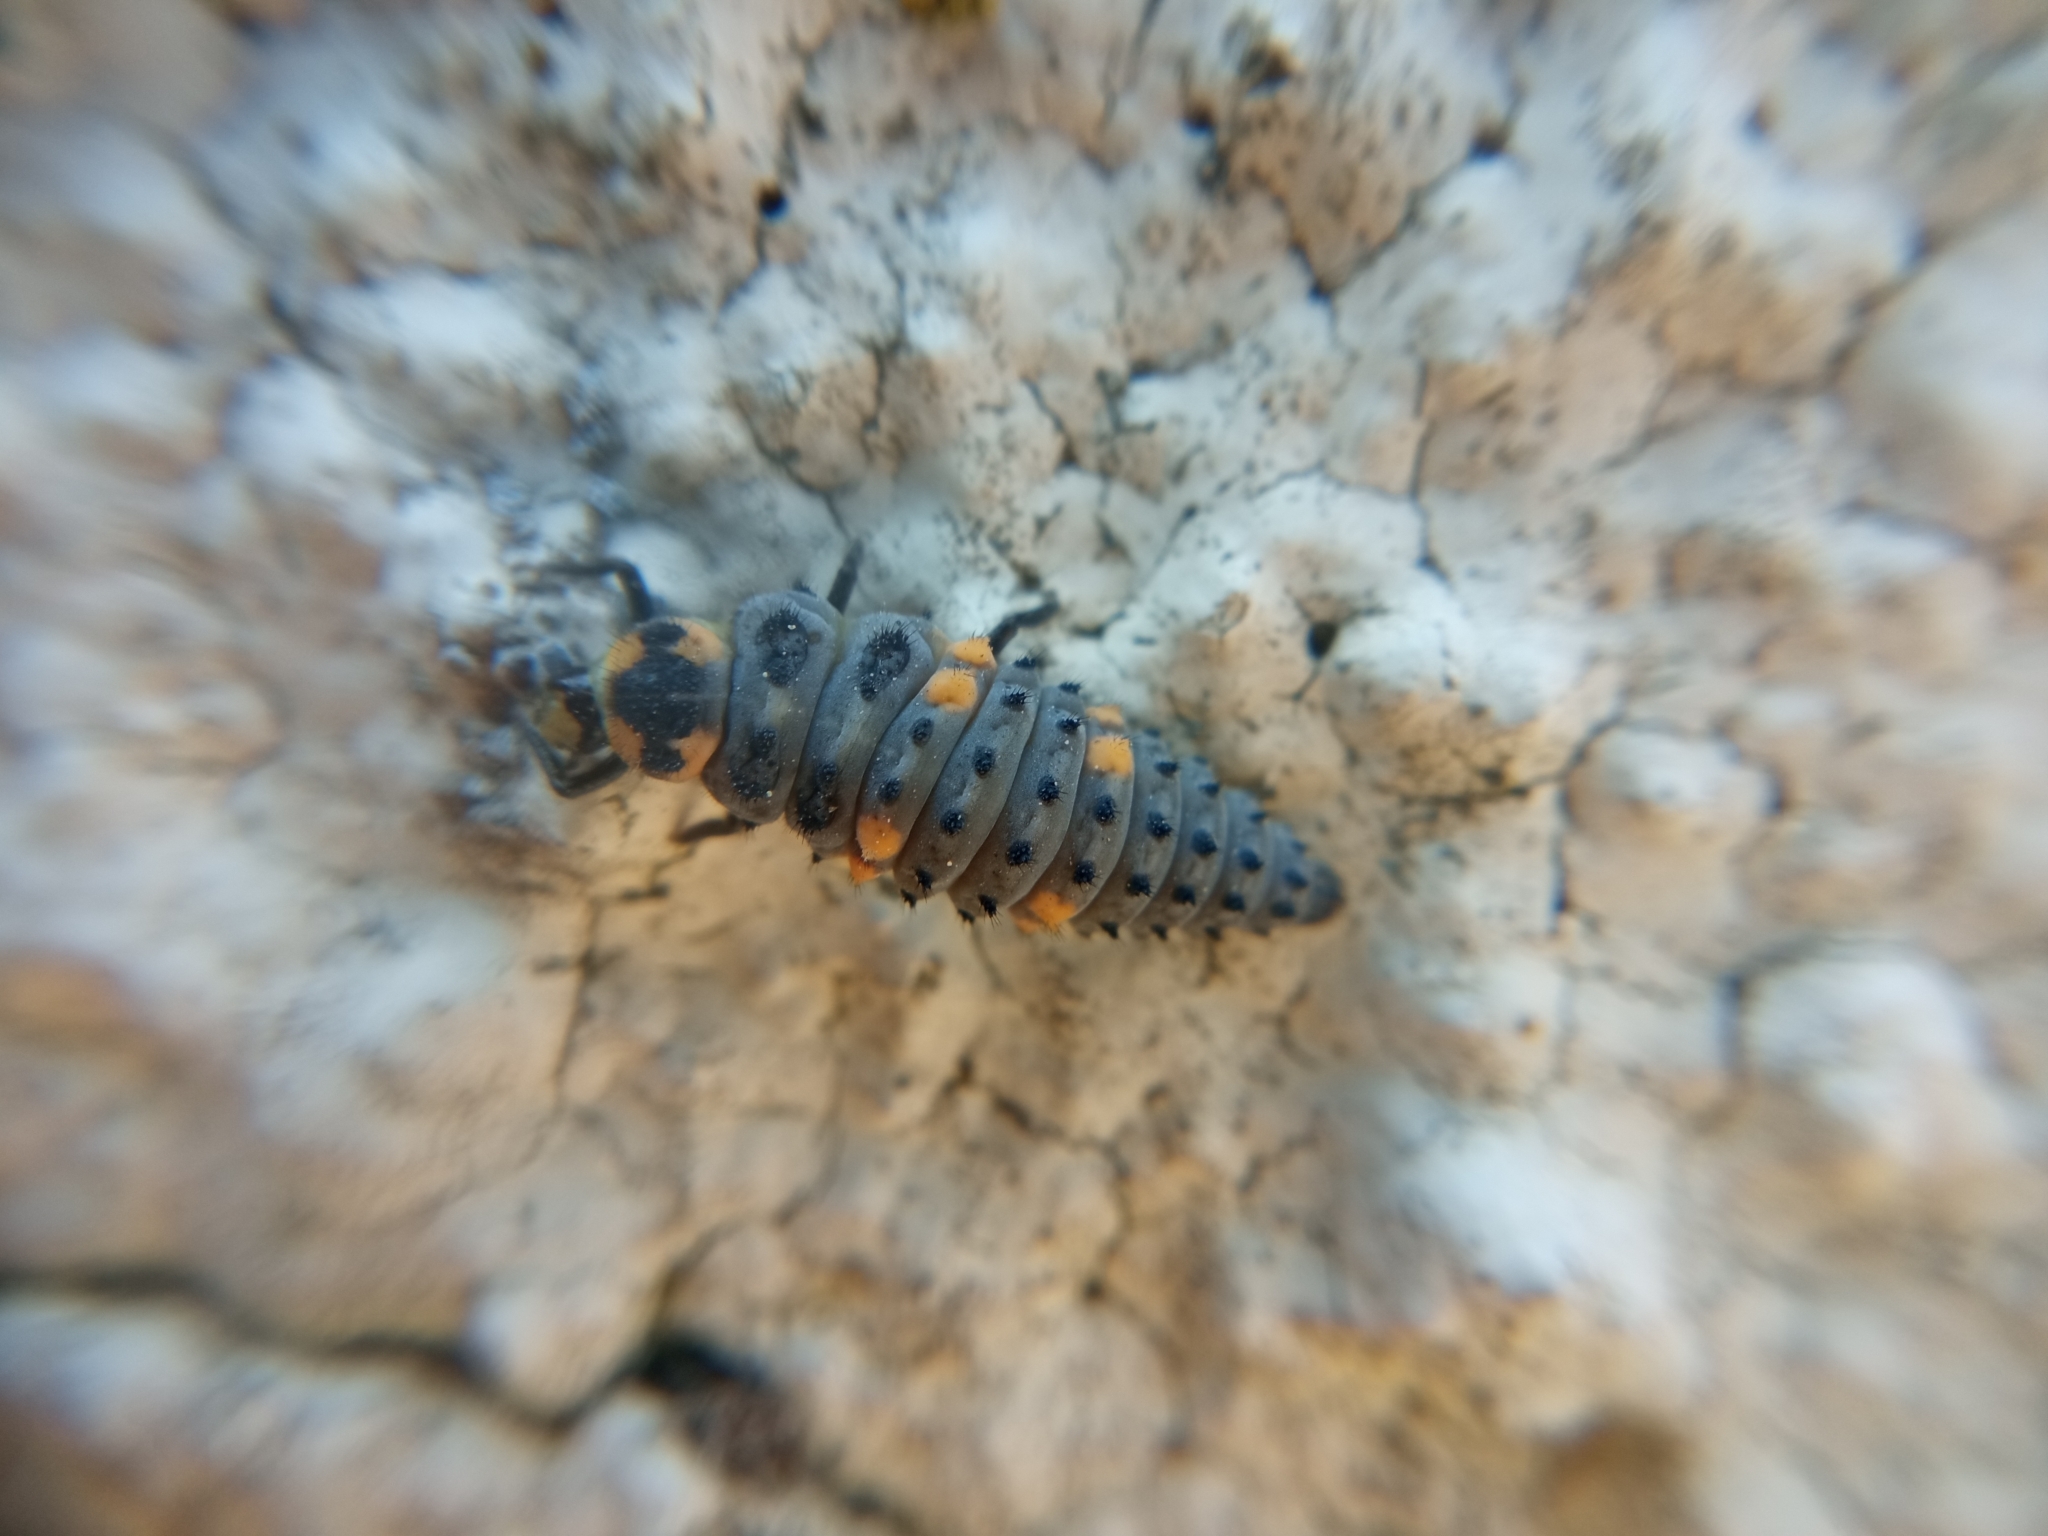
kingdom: Animalia
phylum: Arthropoda
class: Insecta
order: Coleoptera
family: Coccinellidae
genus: Coccinella
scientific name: Coccinella septempunctata
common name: Sevenspotted lady beetle
